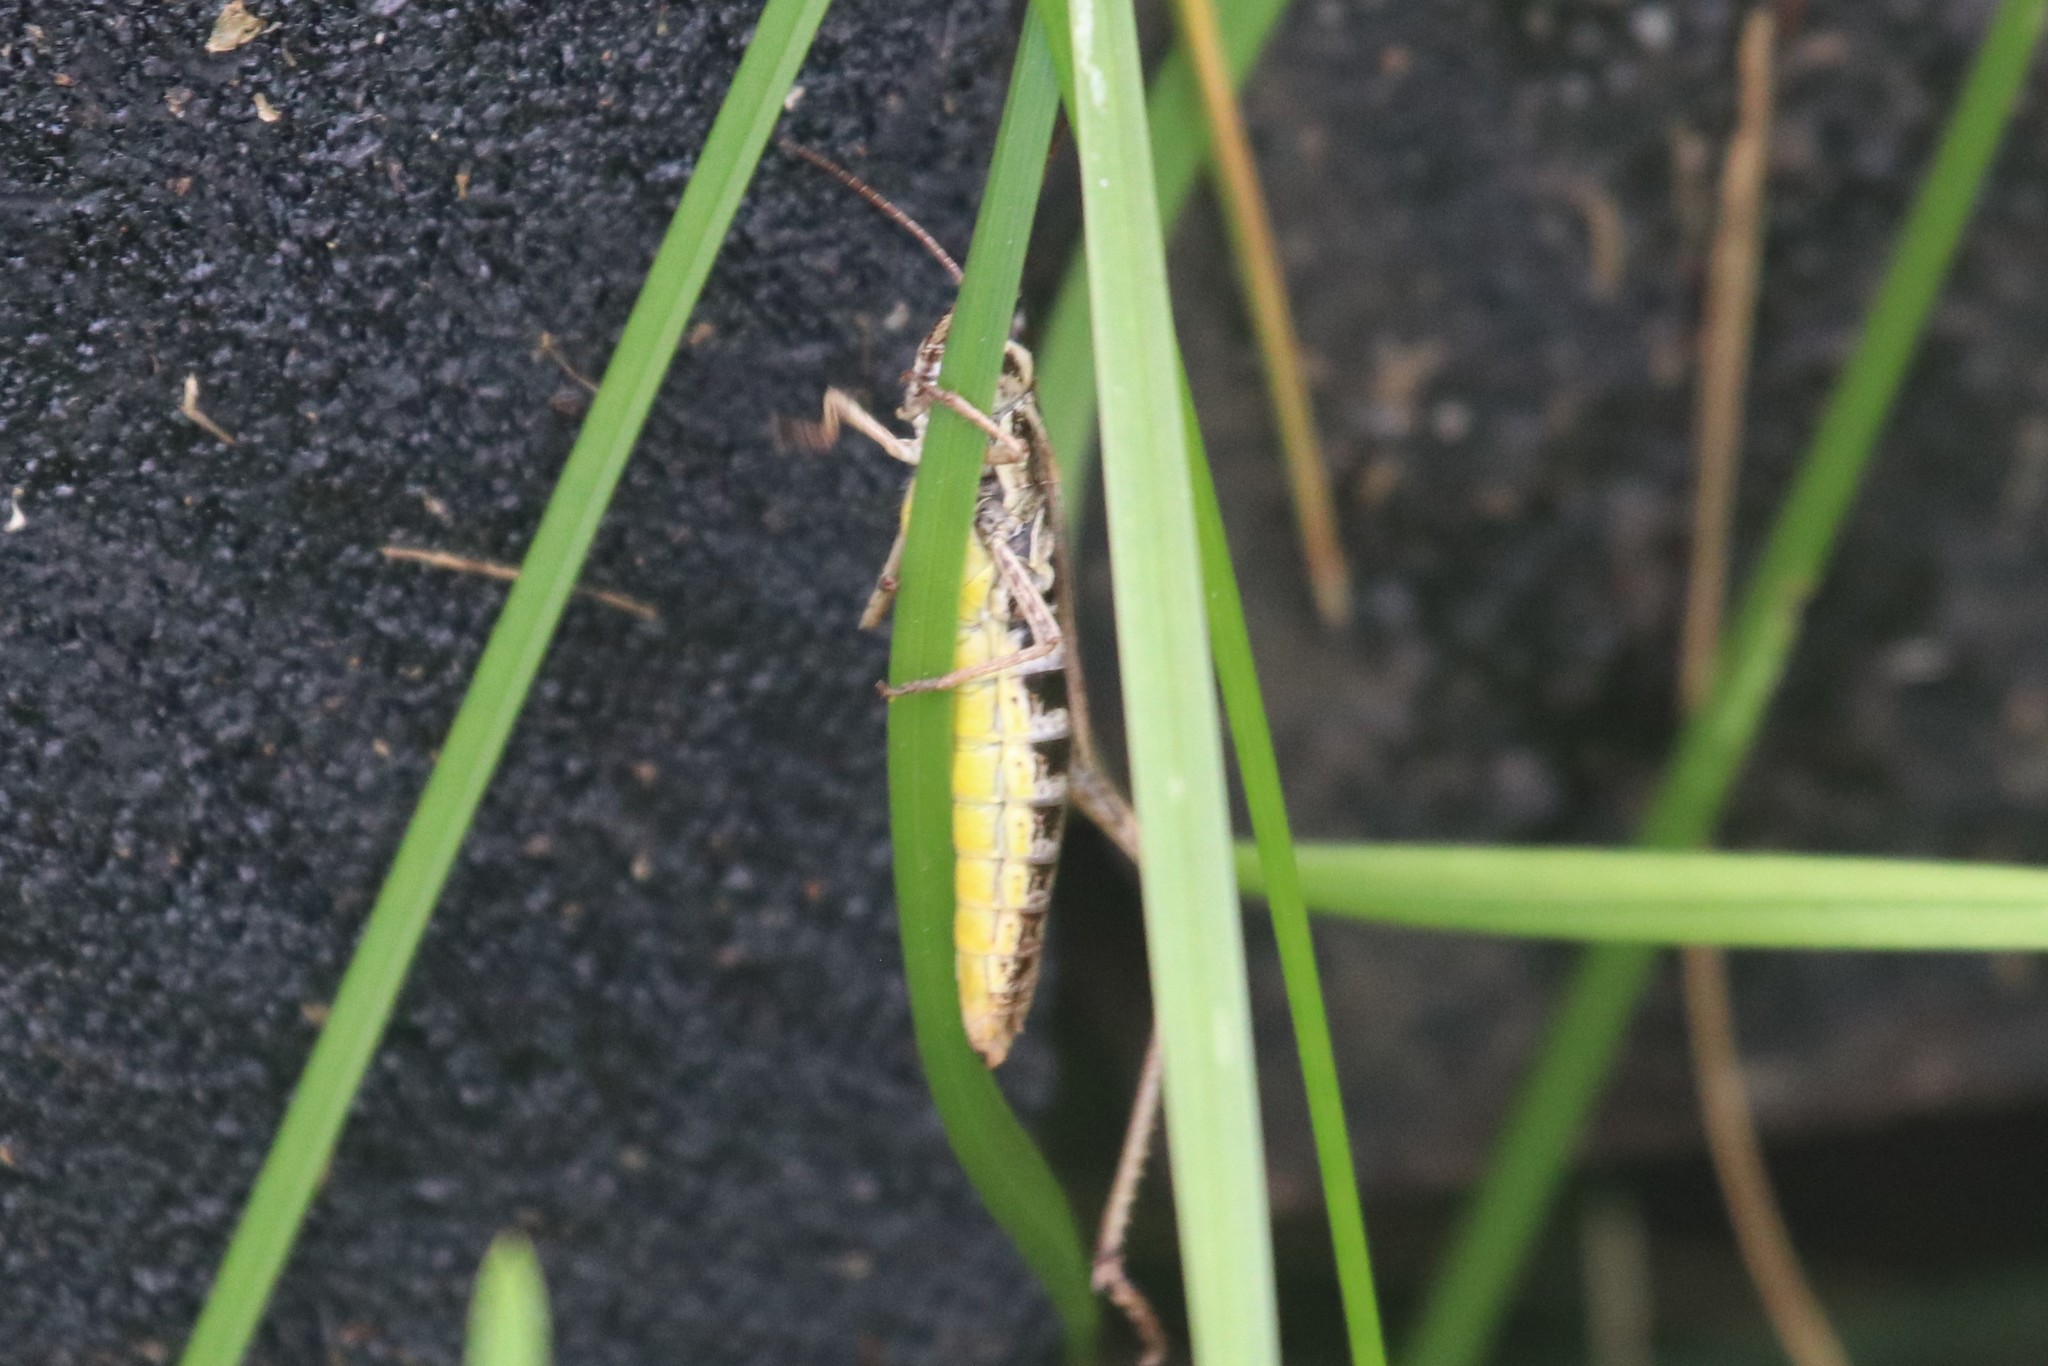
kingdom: Animalia
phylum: Arthropoda
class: Insecta
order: Orthoptera
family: Acrididae
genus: Pseudochorthippus
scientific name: Pseudochorthippus curtipennis
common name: Marsh meadow grasshopper
